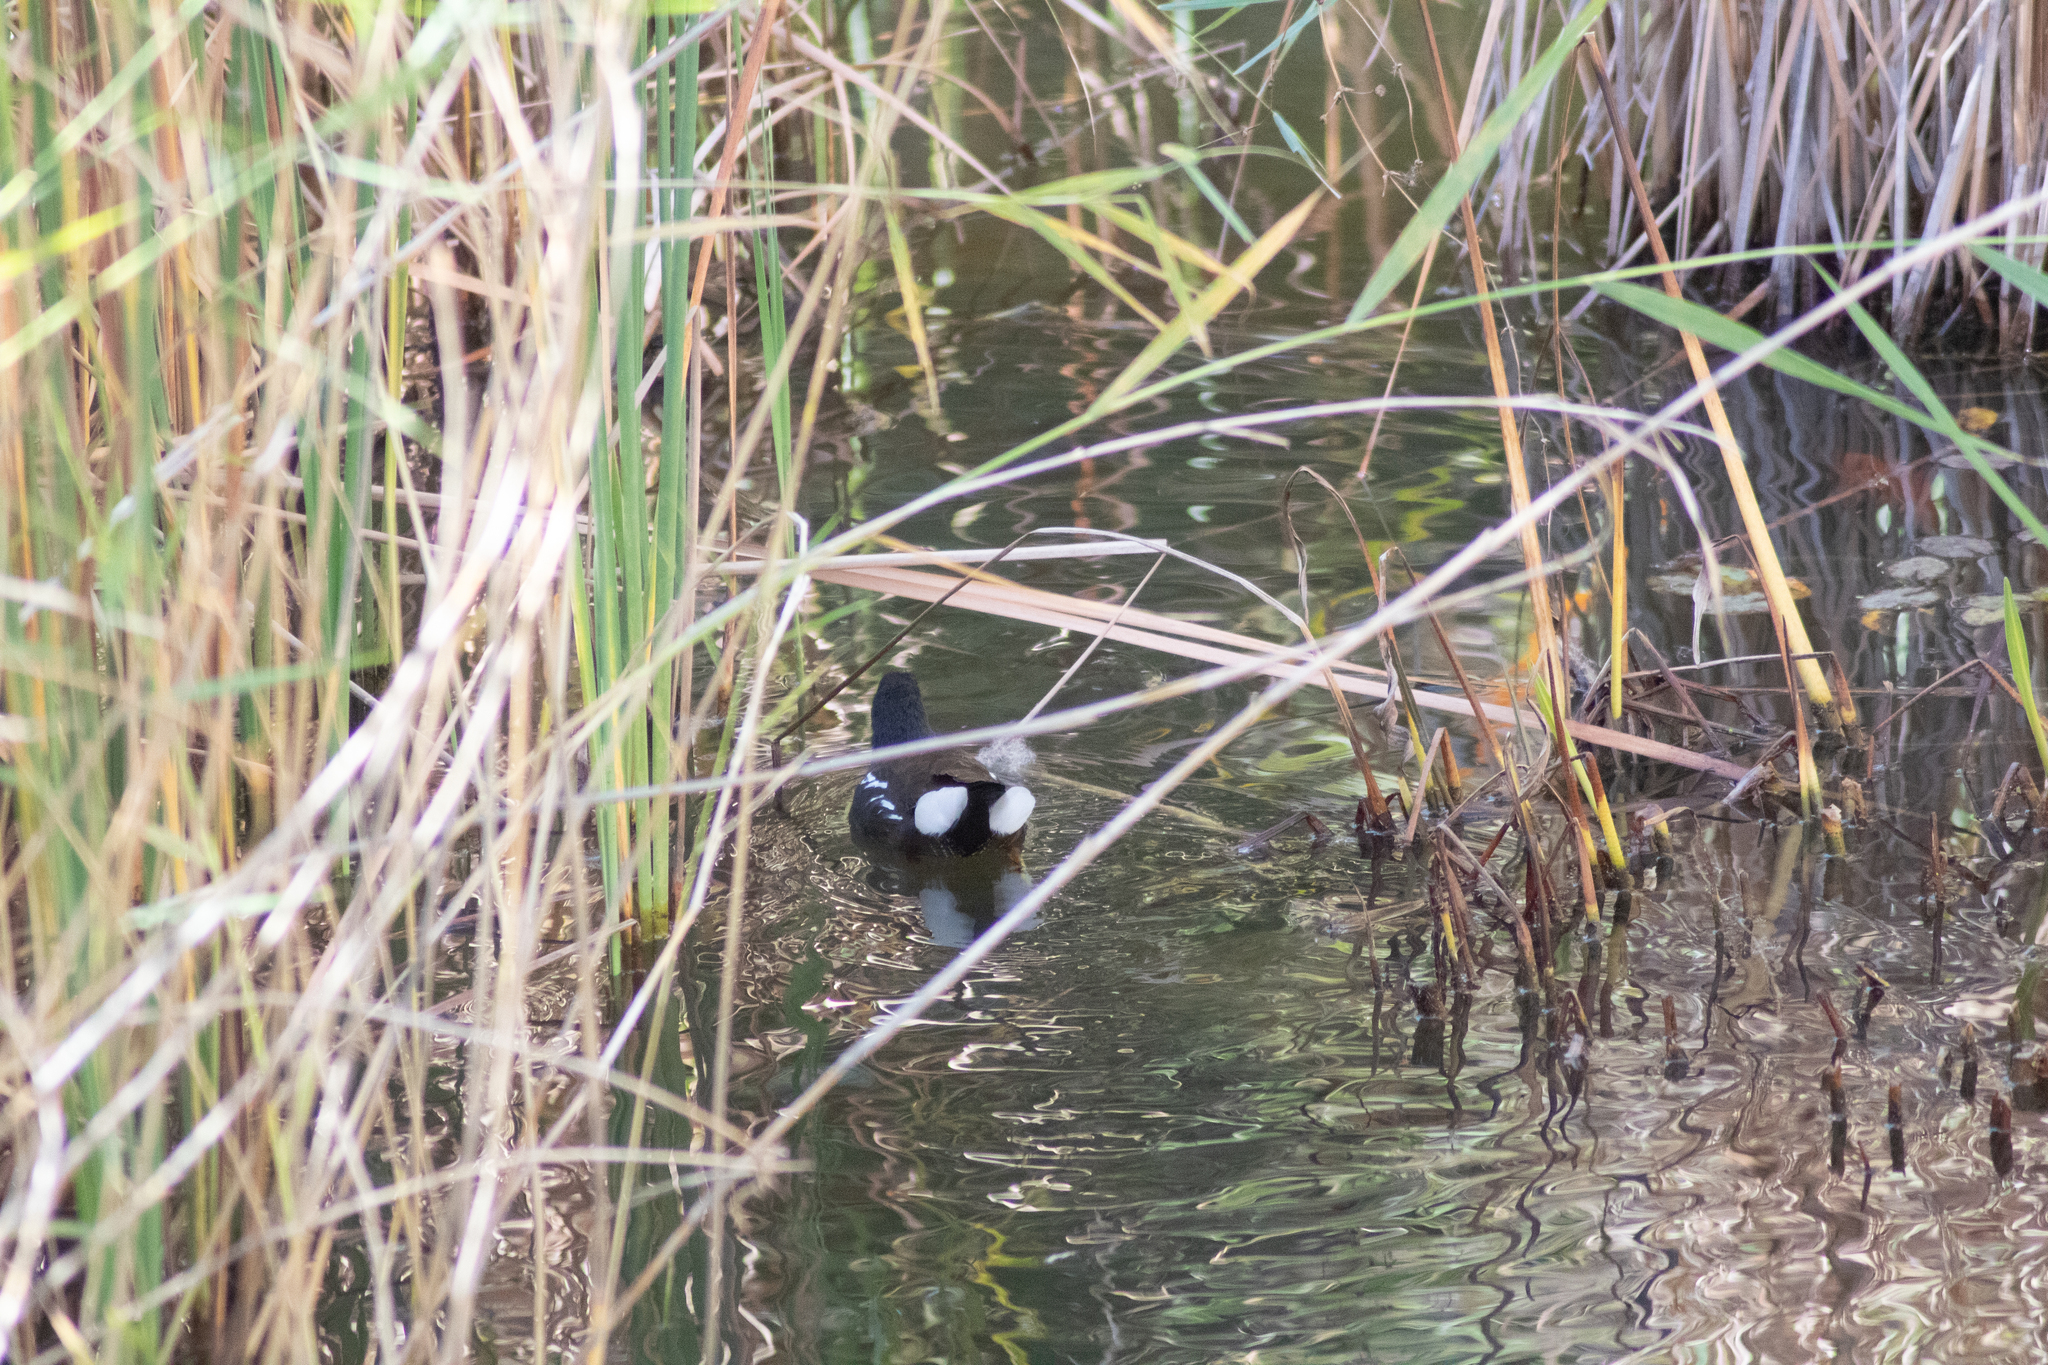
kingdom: Animalia
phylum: Chordata
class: Aves
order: Gruiformes
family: Rallidae
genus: Gallinula
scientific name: Gallinula chloropus
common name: Common moorhen
